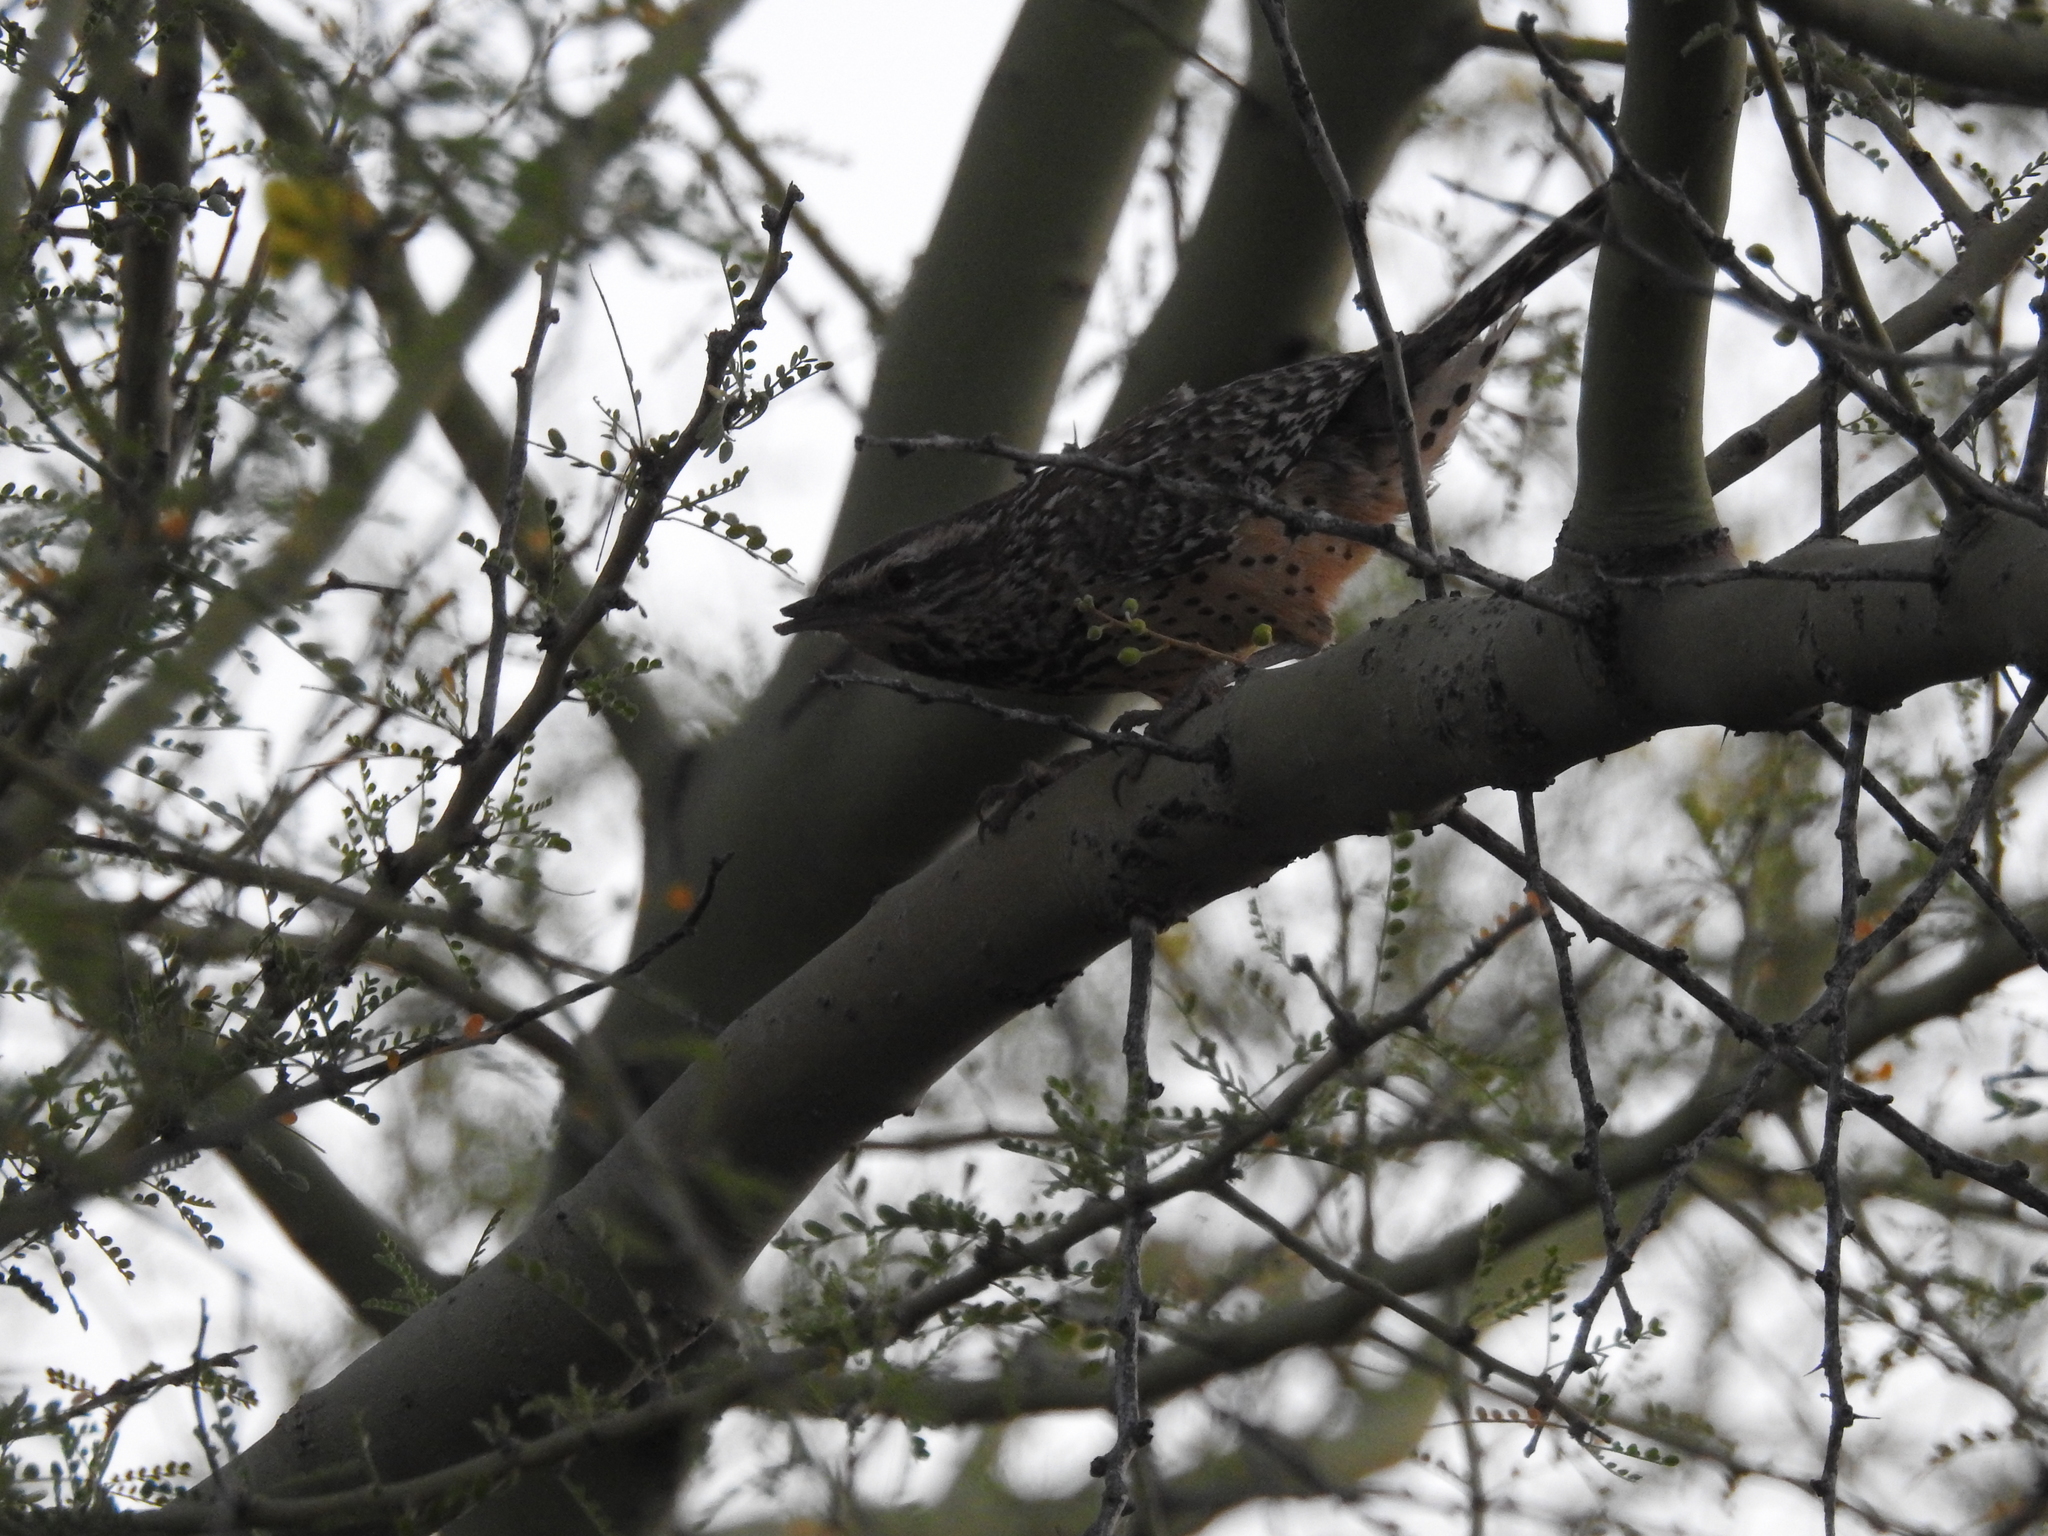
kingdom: Animalia
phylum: Chordata
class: Aves
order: Passeriformes
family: Troglodytidae
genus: Campylorhynchus
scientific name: Campylorhynchus brunneicapillus
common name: Cactus wren
